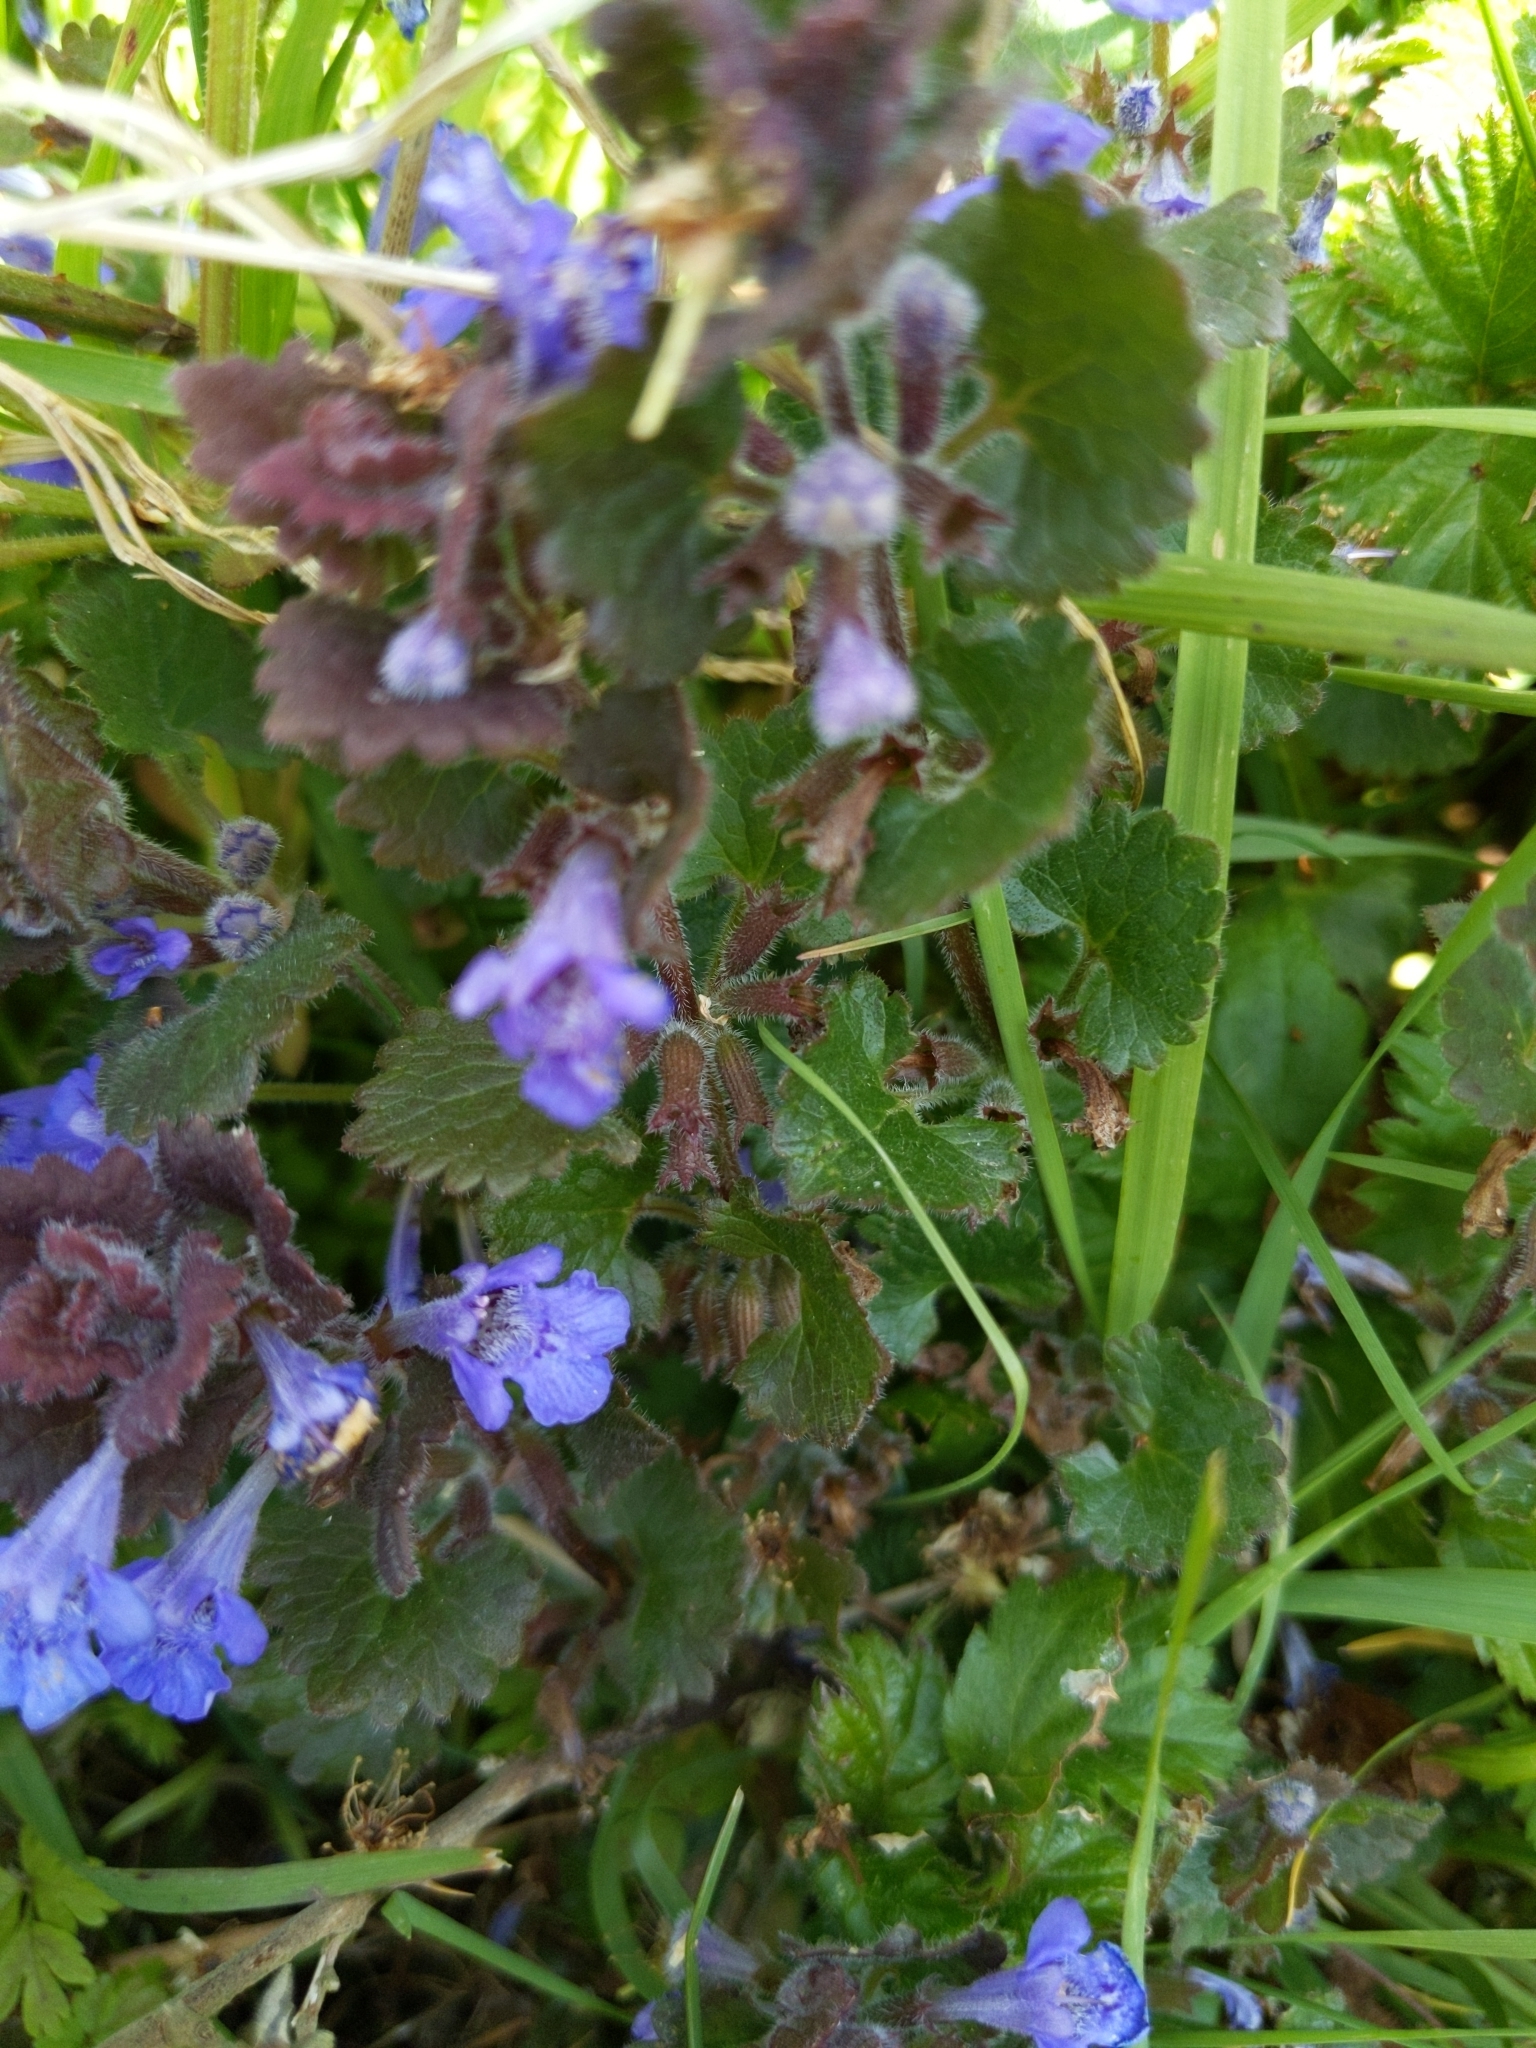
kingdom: Plantae
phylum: Tracheophyta
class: Magnoliopsida
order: Lamiales
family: Lamiaceae
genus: Glechoma
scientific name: Glechoma hederacea
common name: Ground ivy
